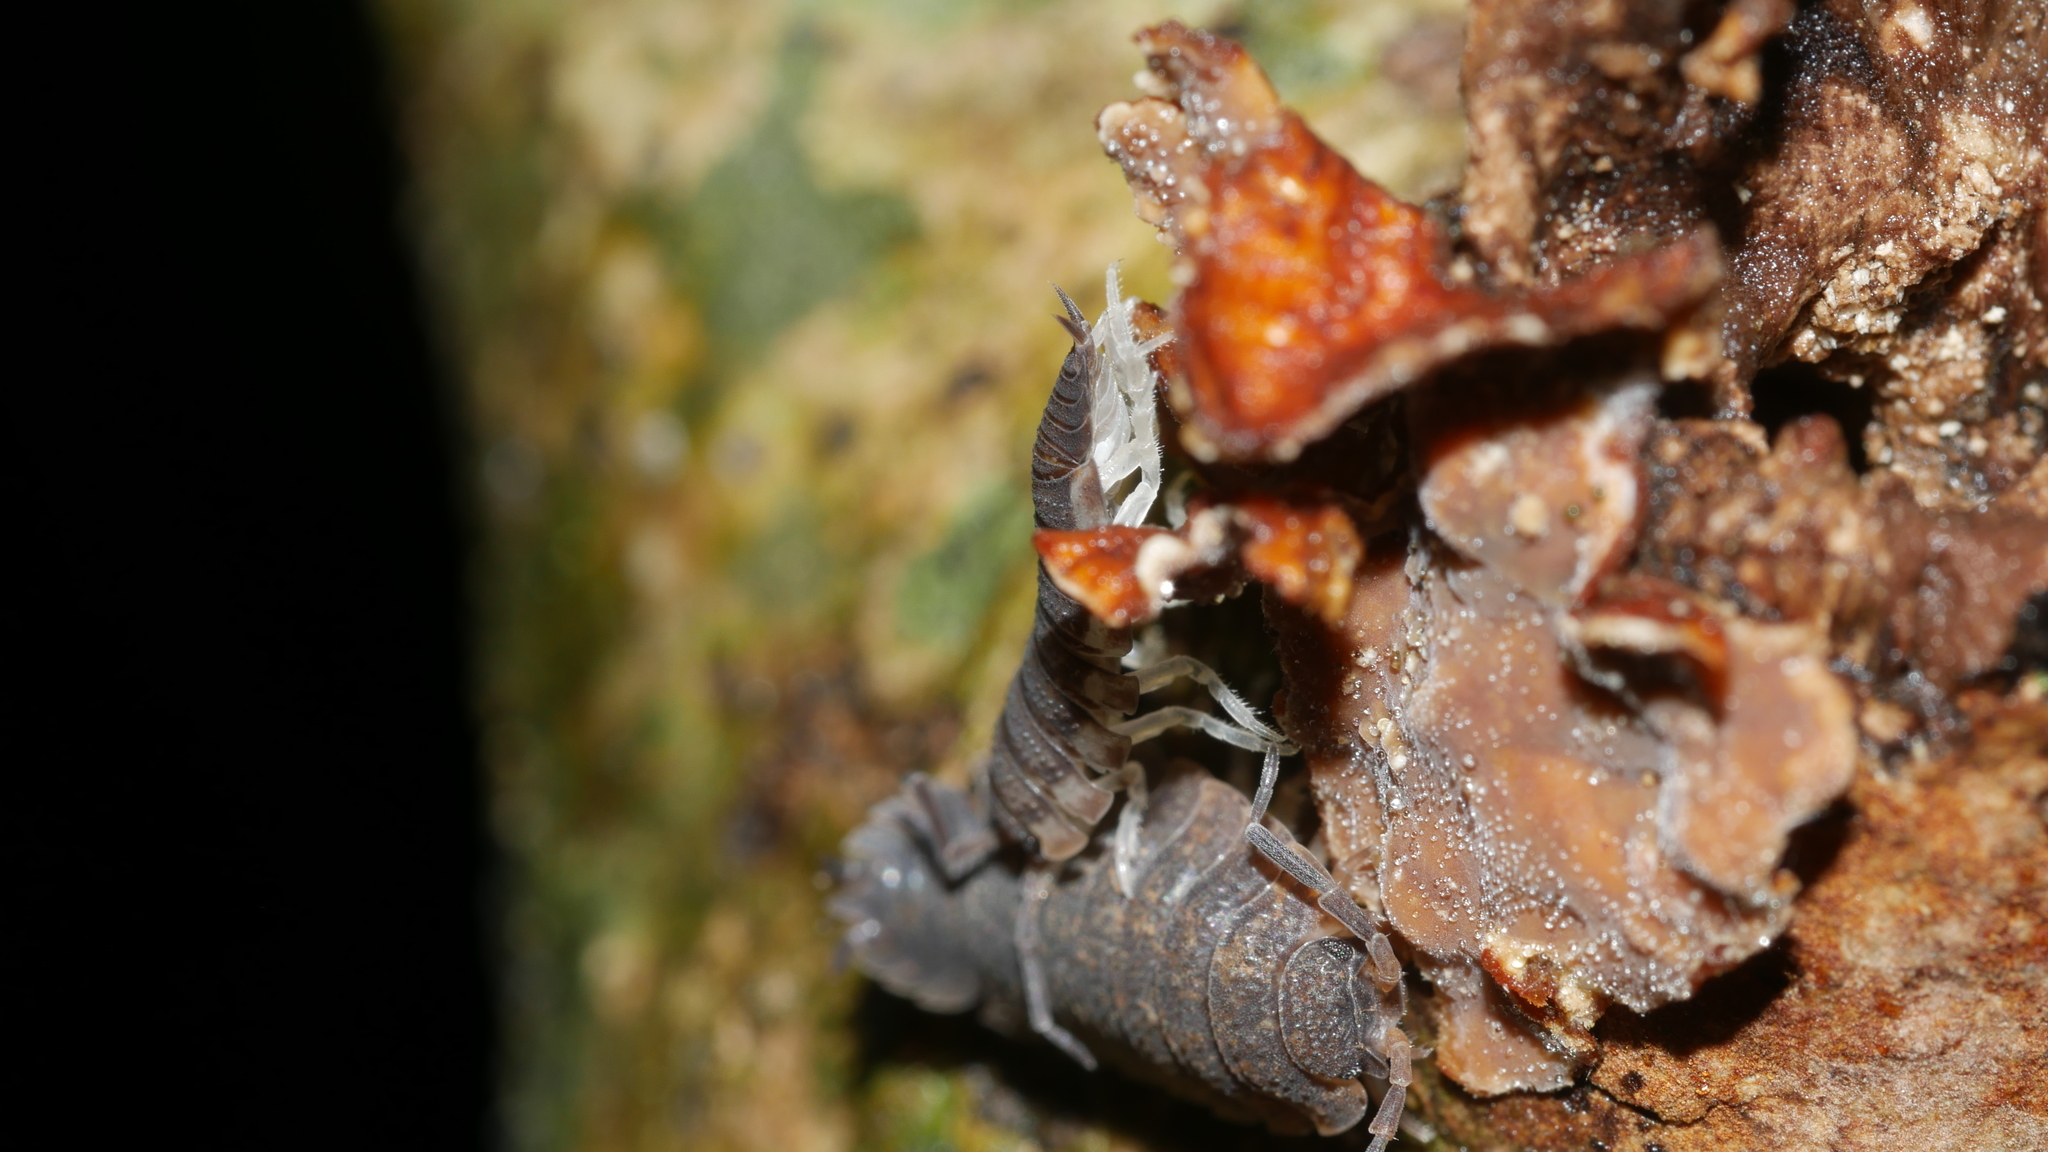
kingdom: Animalia
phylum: Arthropoda
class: Malacostraca
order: Isopoda
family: Porcellionidae
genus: Porcellio
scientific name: Porcellio scaber
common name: Common rough woodlouse
